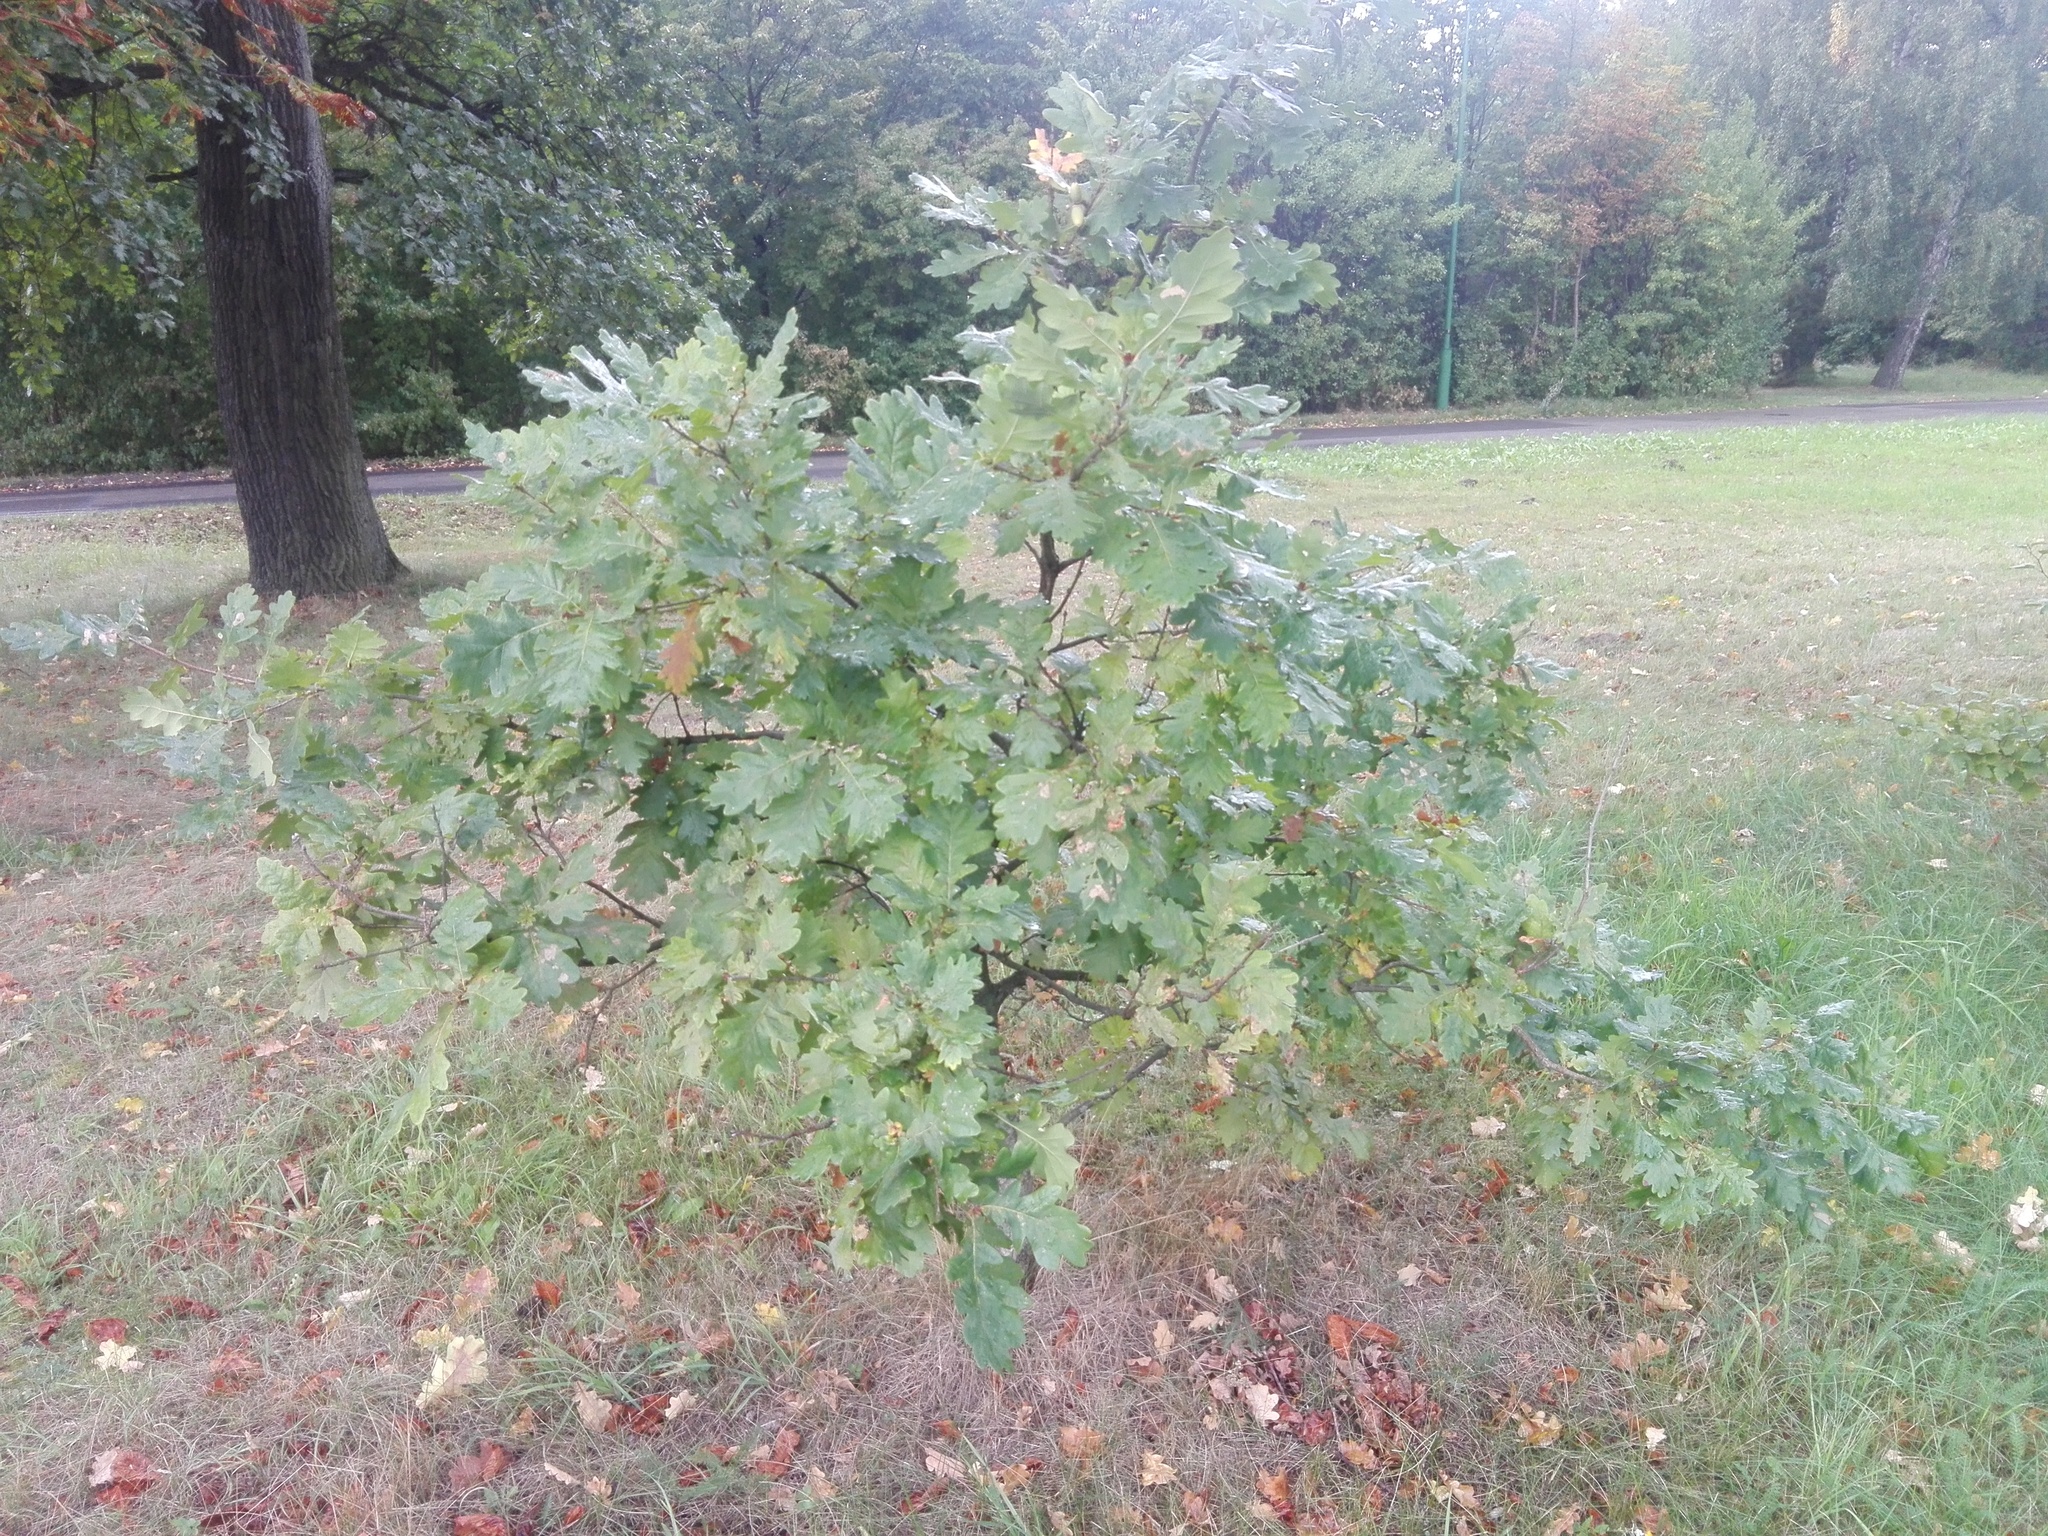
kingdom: Plantae
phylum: Tracheophyta
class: Magnoliopsida
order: Fagales
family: Fagaceae
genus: Quercus
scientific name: Quercus robur
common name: Pedunculate oak
